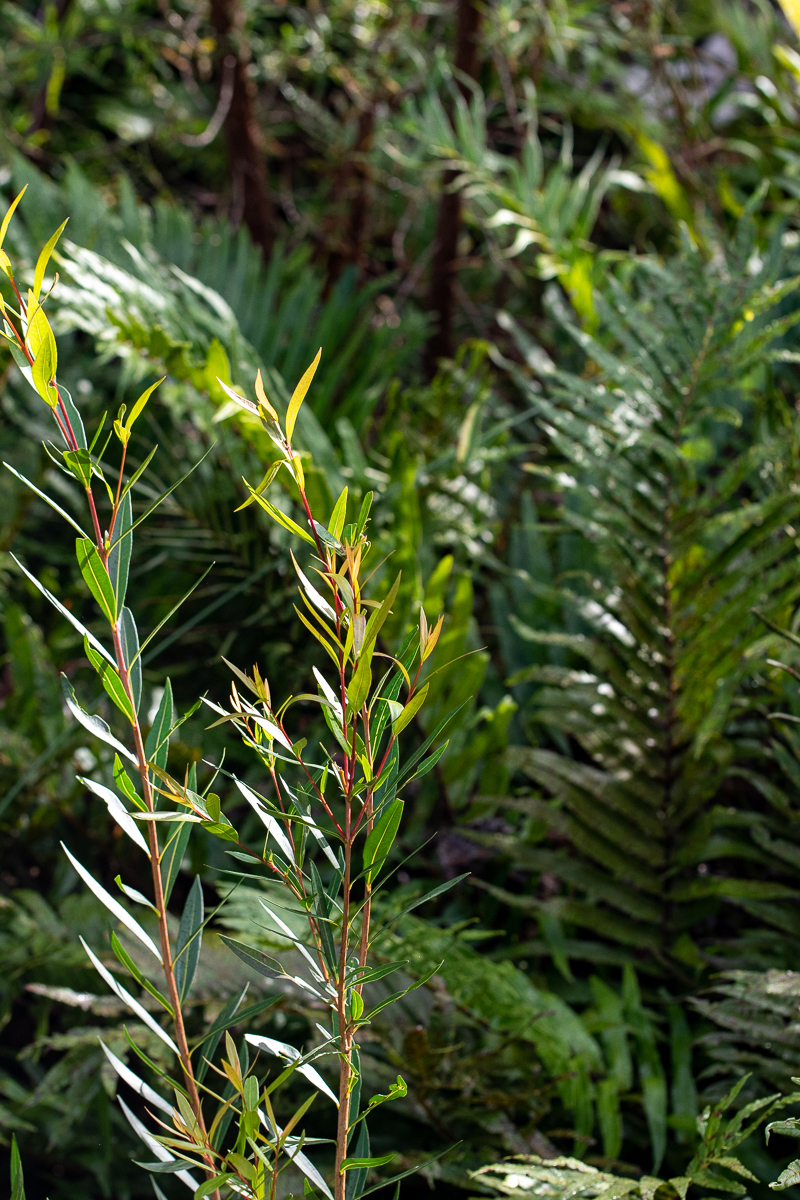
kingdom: Plantae
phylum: Tracheophyta
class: Magnoliopsida
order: Sapindales
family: Rutaceae
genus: Empleurum
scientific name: Empleurum unicapsulare
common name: False buchu
